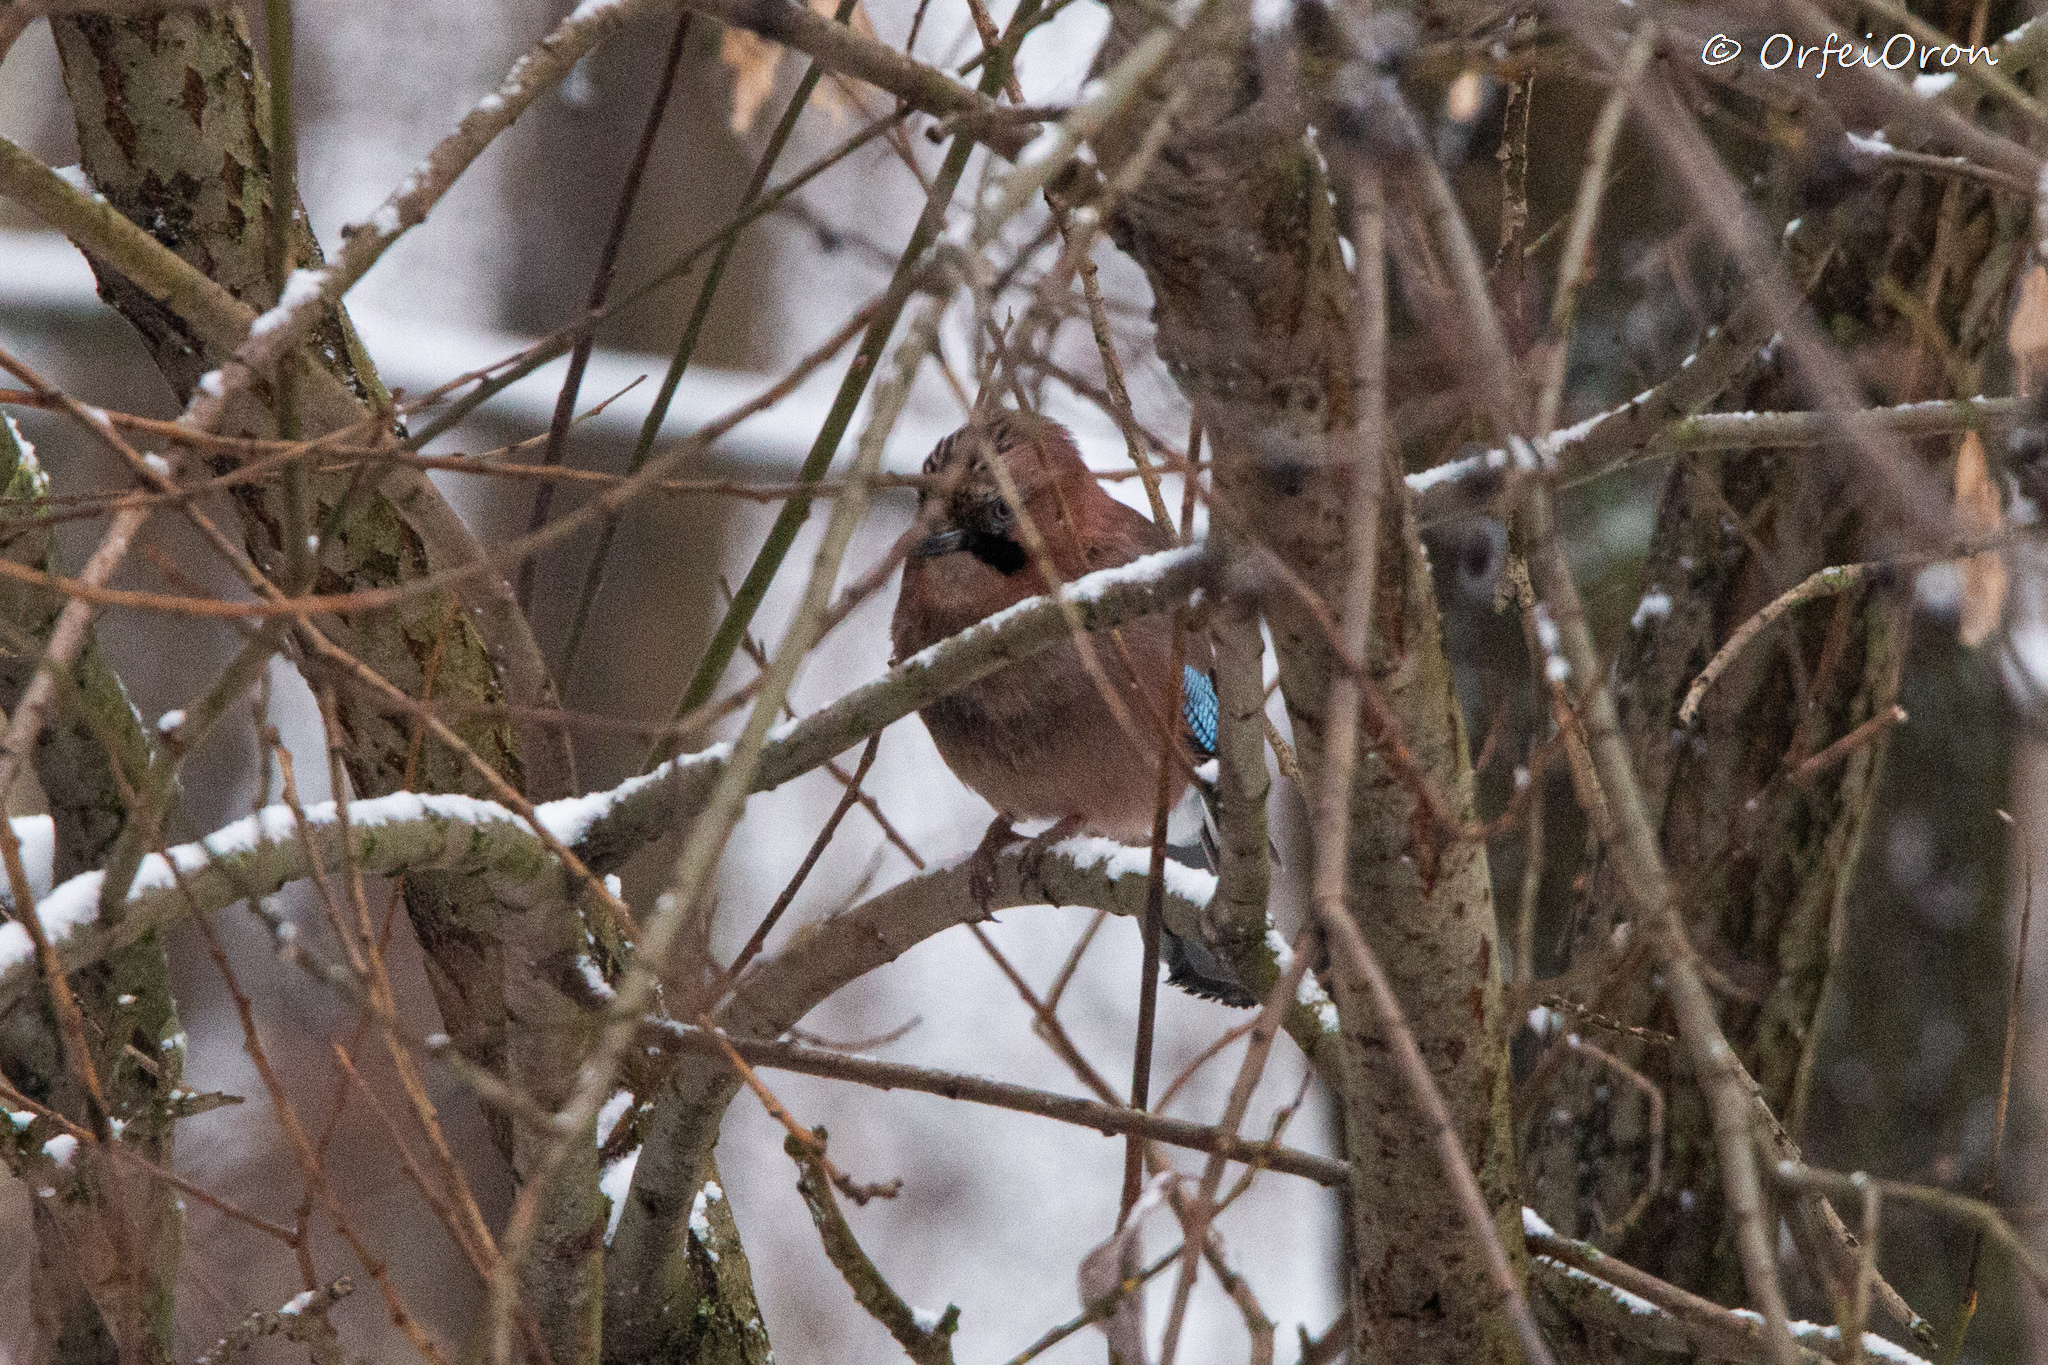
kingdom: Animalia
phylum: Chordata
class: Aves
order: Passeriformes
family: Corvidae
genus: Garrulus
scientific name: Garrulus glandarius
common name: Eurasian jay
